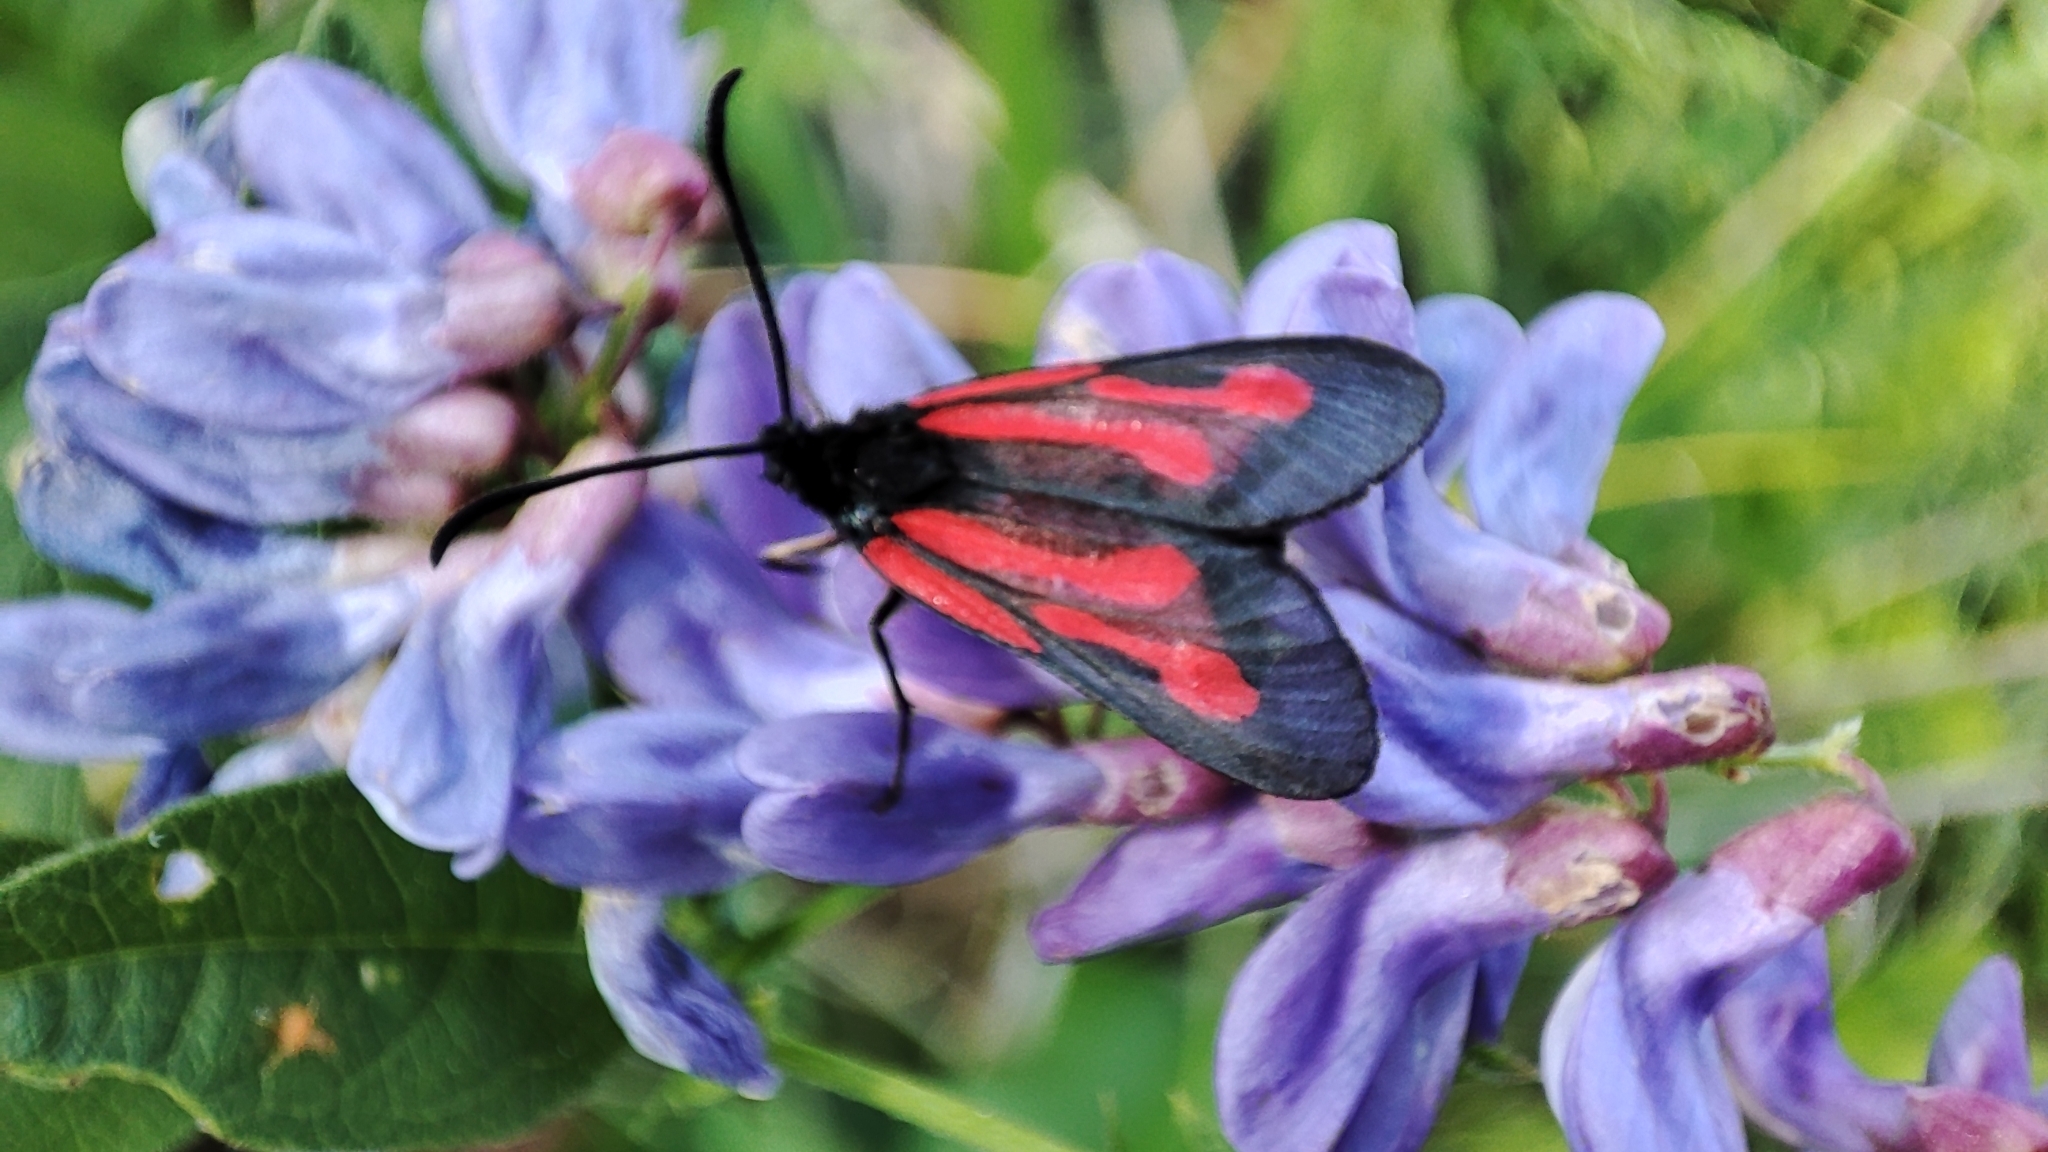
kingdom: Animalia
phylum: Arthropoda
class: Insecta
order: Lepidoptera
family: Zygaenidae
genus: Zygaena
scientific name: Zygaena osterodensis
